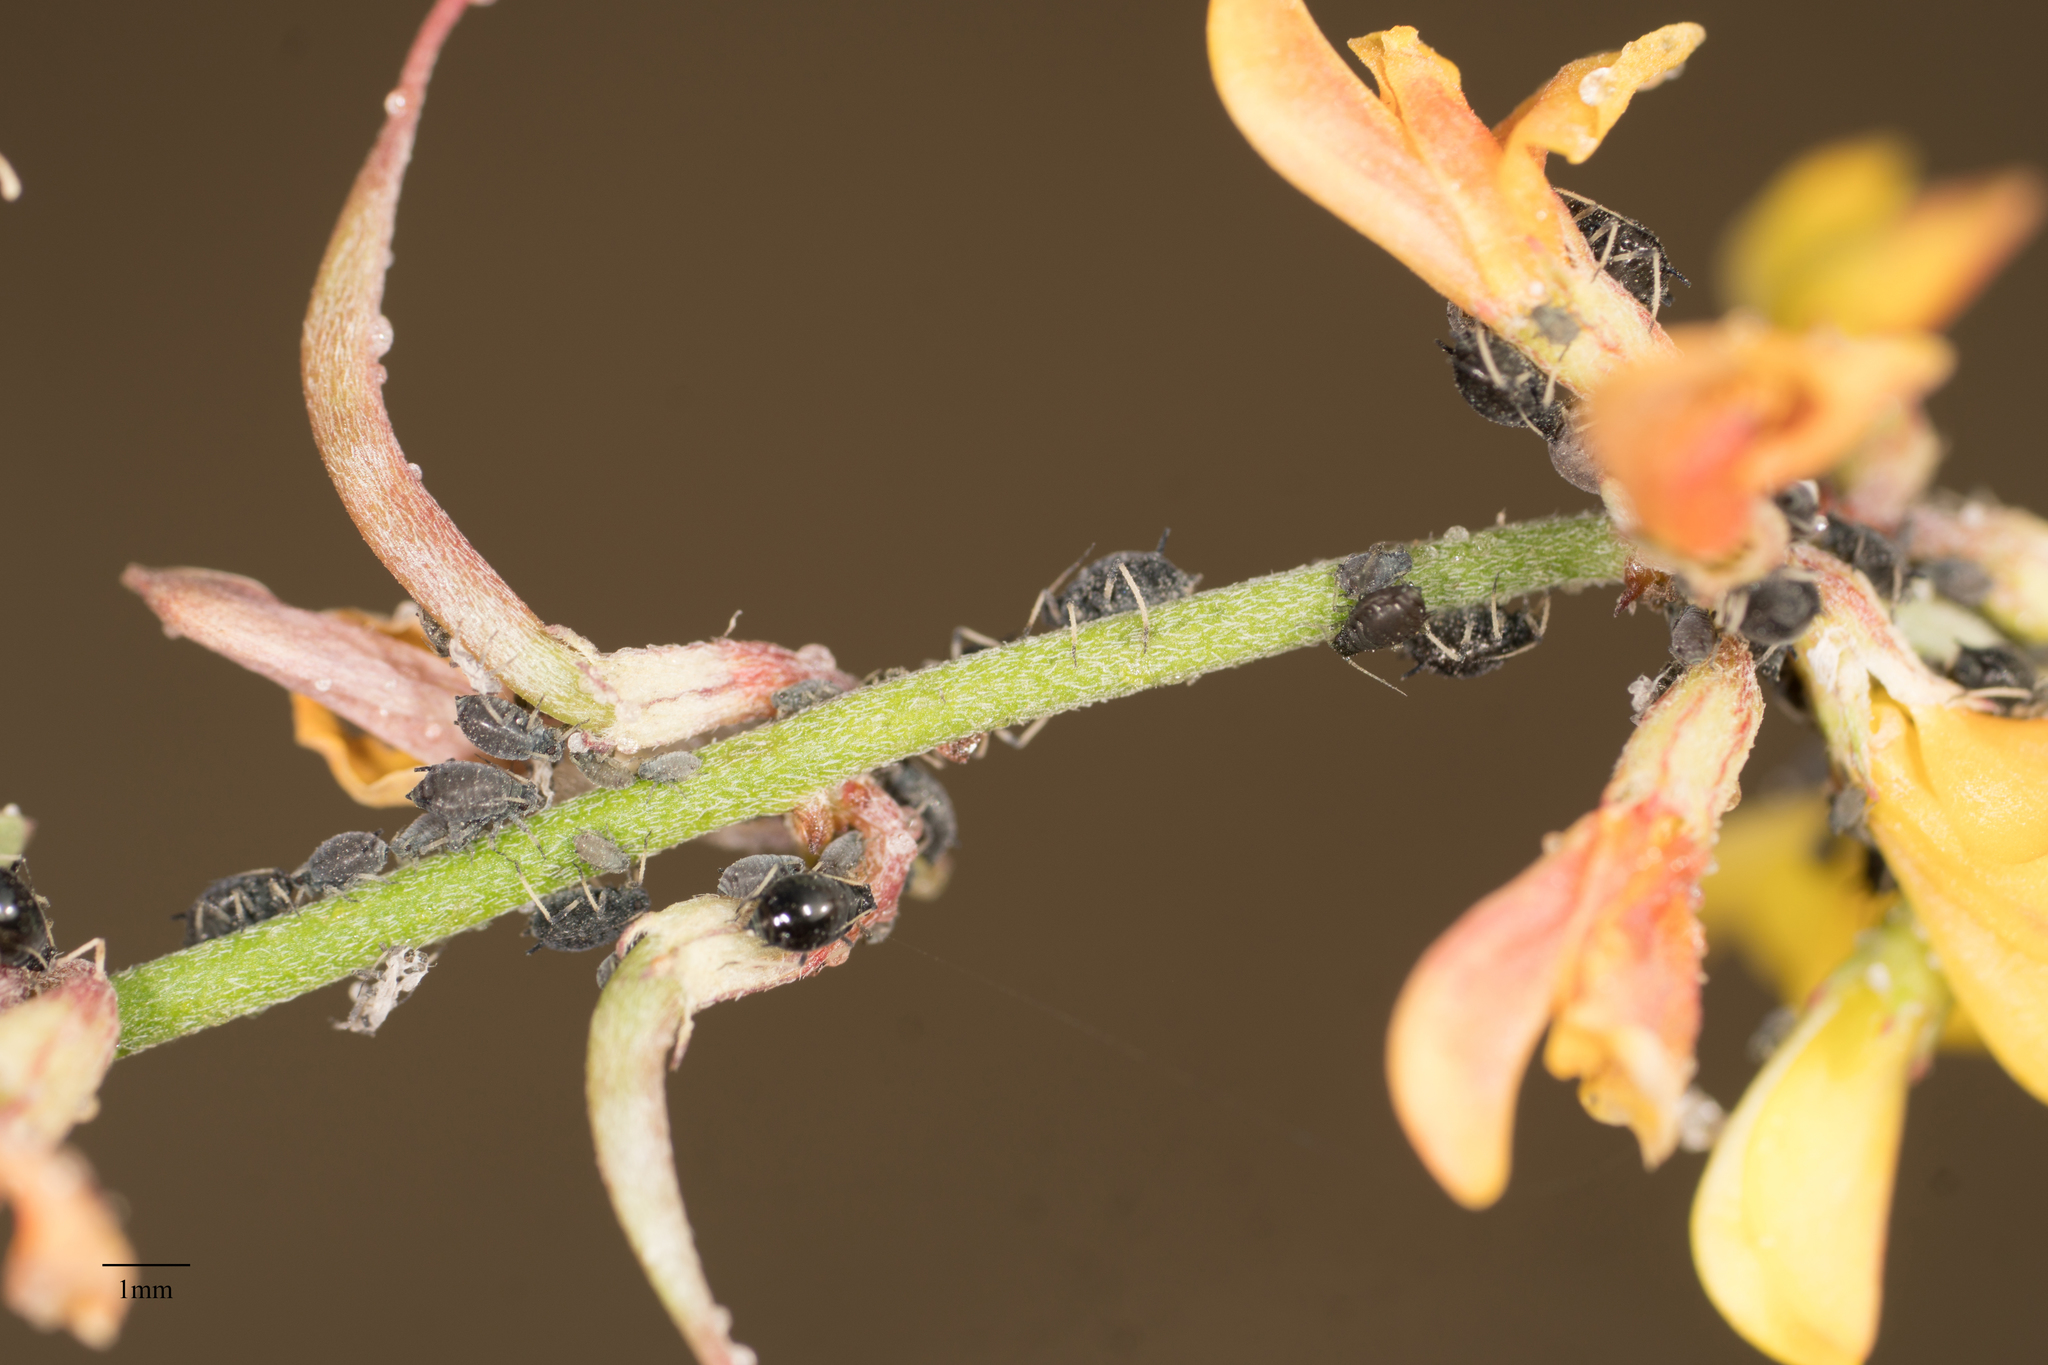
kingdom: Animalia
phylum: Arthropoda
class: Insecta
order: Hemiptera
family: Aphididae
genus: Aphis
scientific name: Aphis craccivora
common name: Cowpea aphid
